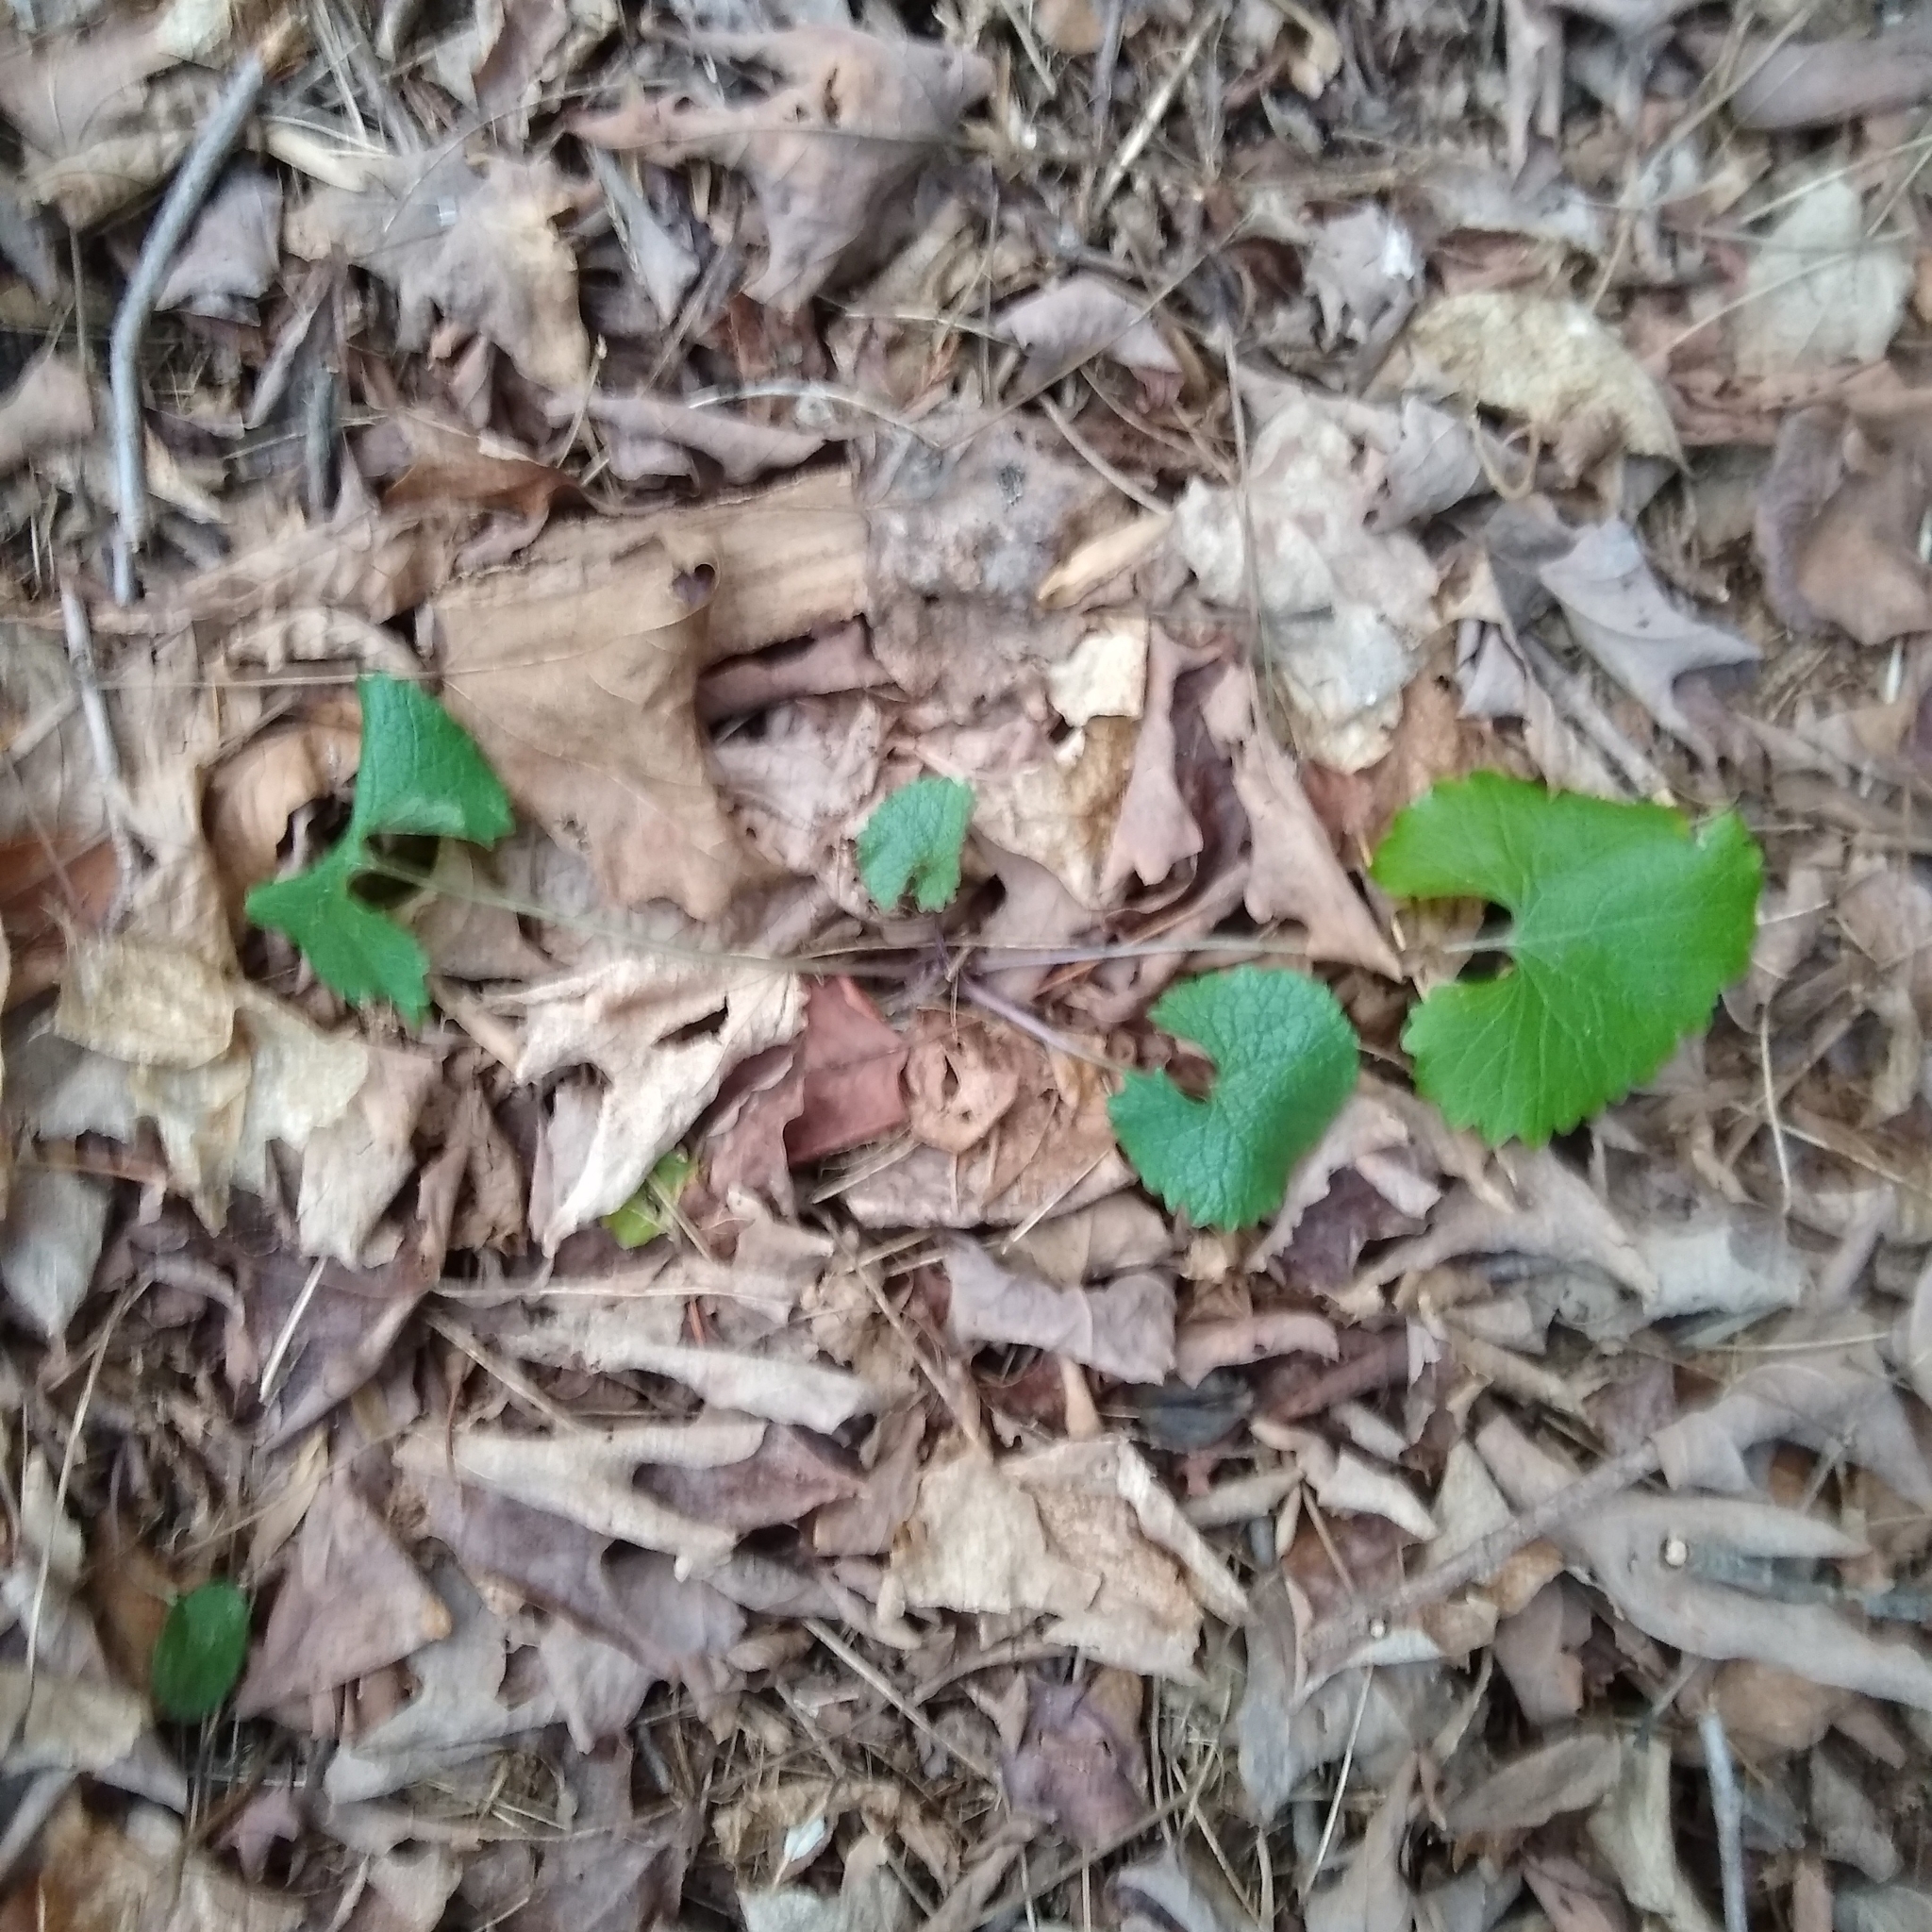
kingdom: Plantae
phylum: Tracheophyta
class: Magnoliopsida
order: Brassicales
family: Brassicaceae
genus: Alliaria
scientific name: Alliaria petiolata
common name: Garlic mustard
